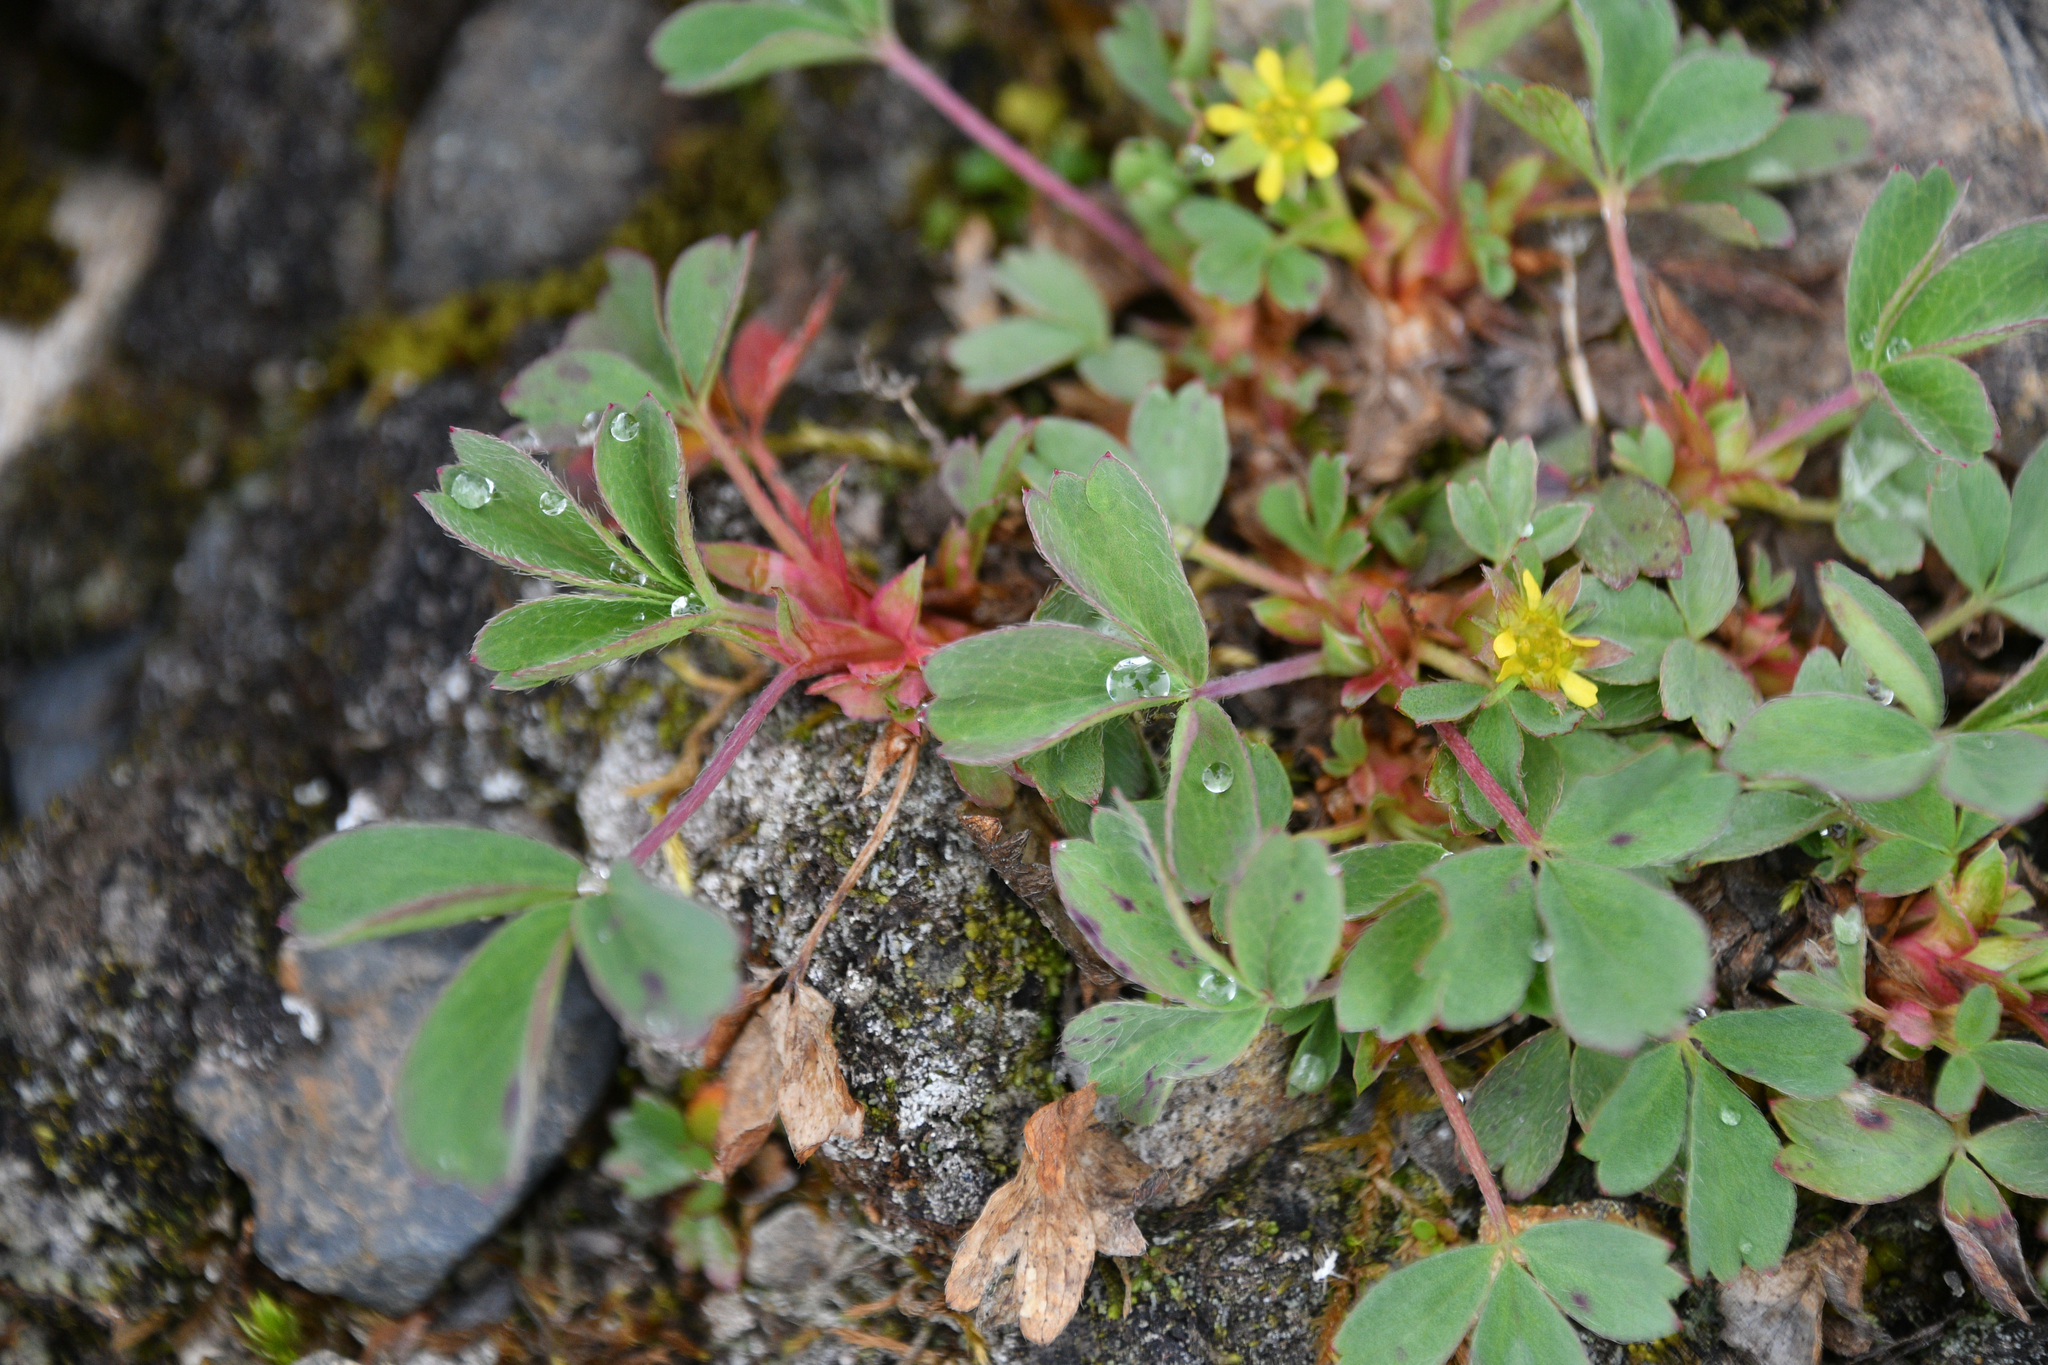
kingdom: Plantae
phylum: Tracheophyta
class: Magnoliopsida
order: Rosales
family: Rosaceae
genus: Sibbaldia
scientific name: Sibbaldia procumbens
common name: Creeping sibbaldia
